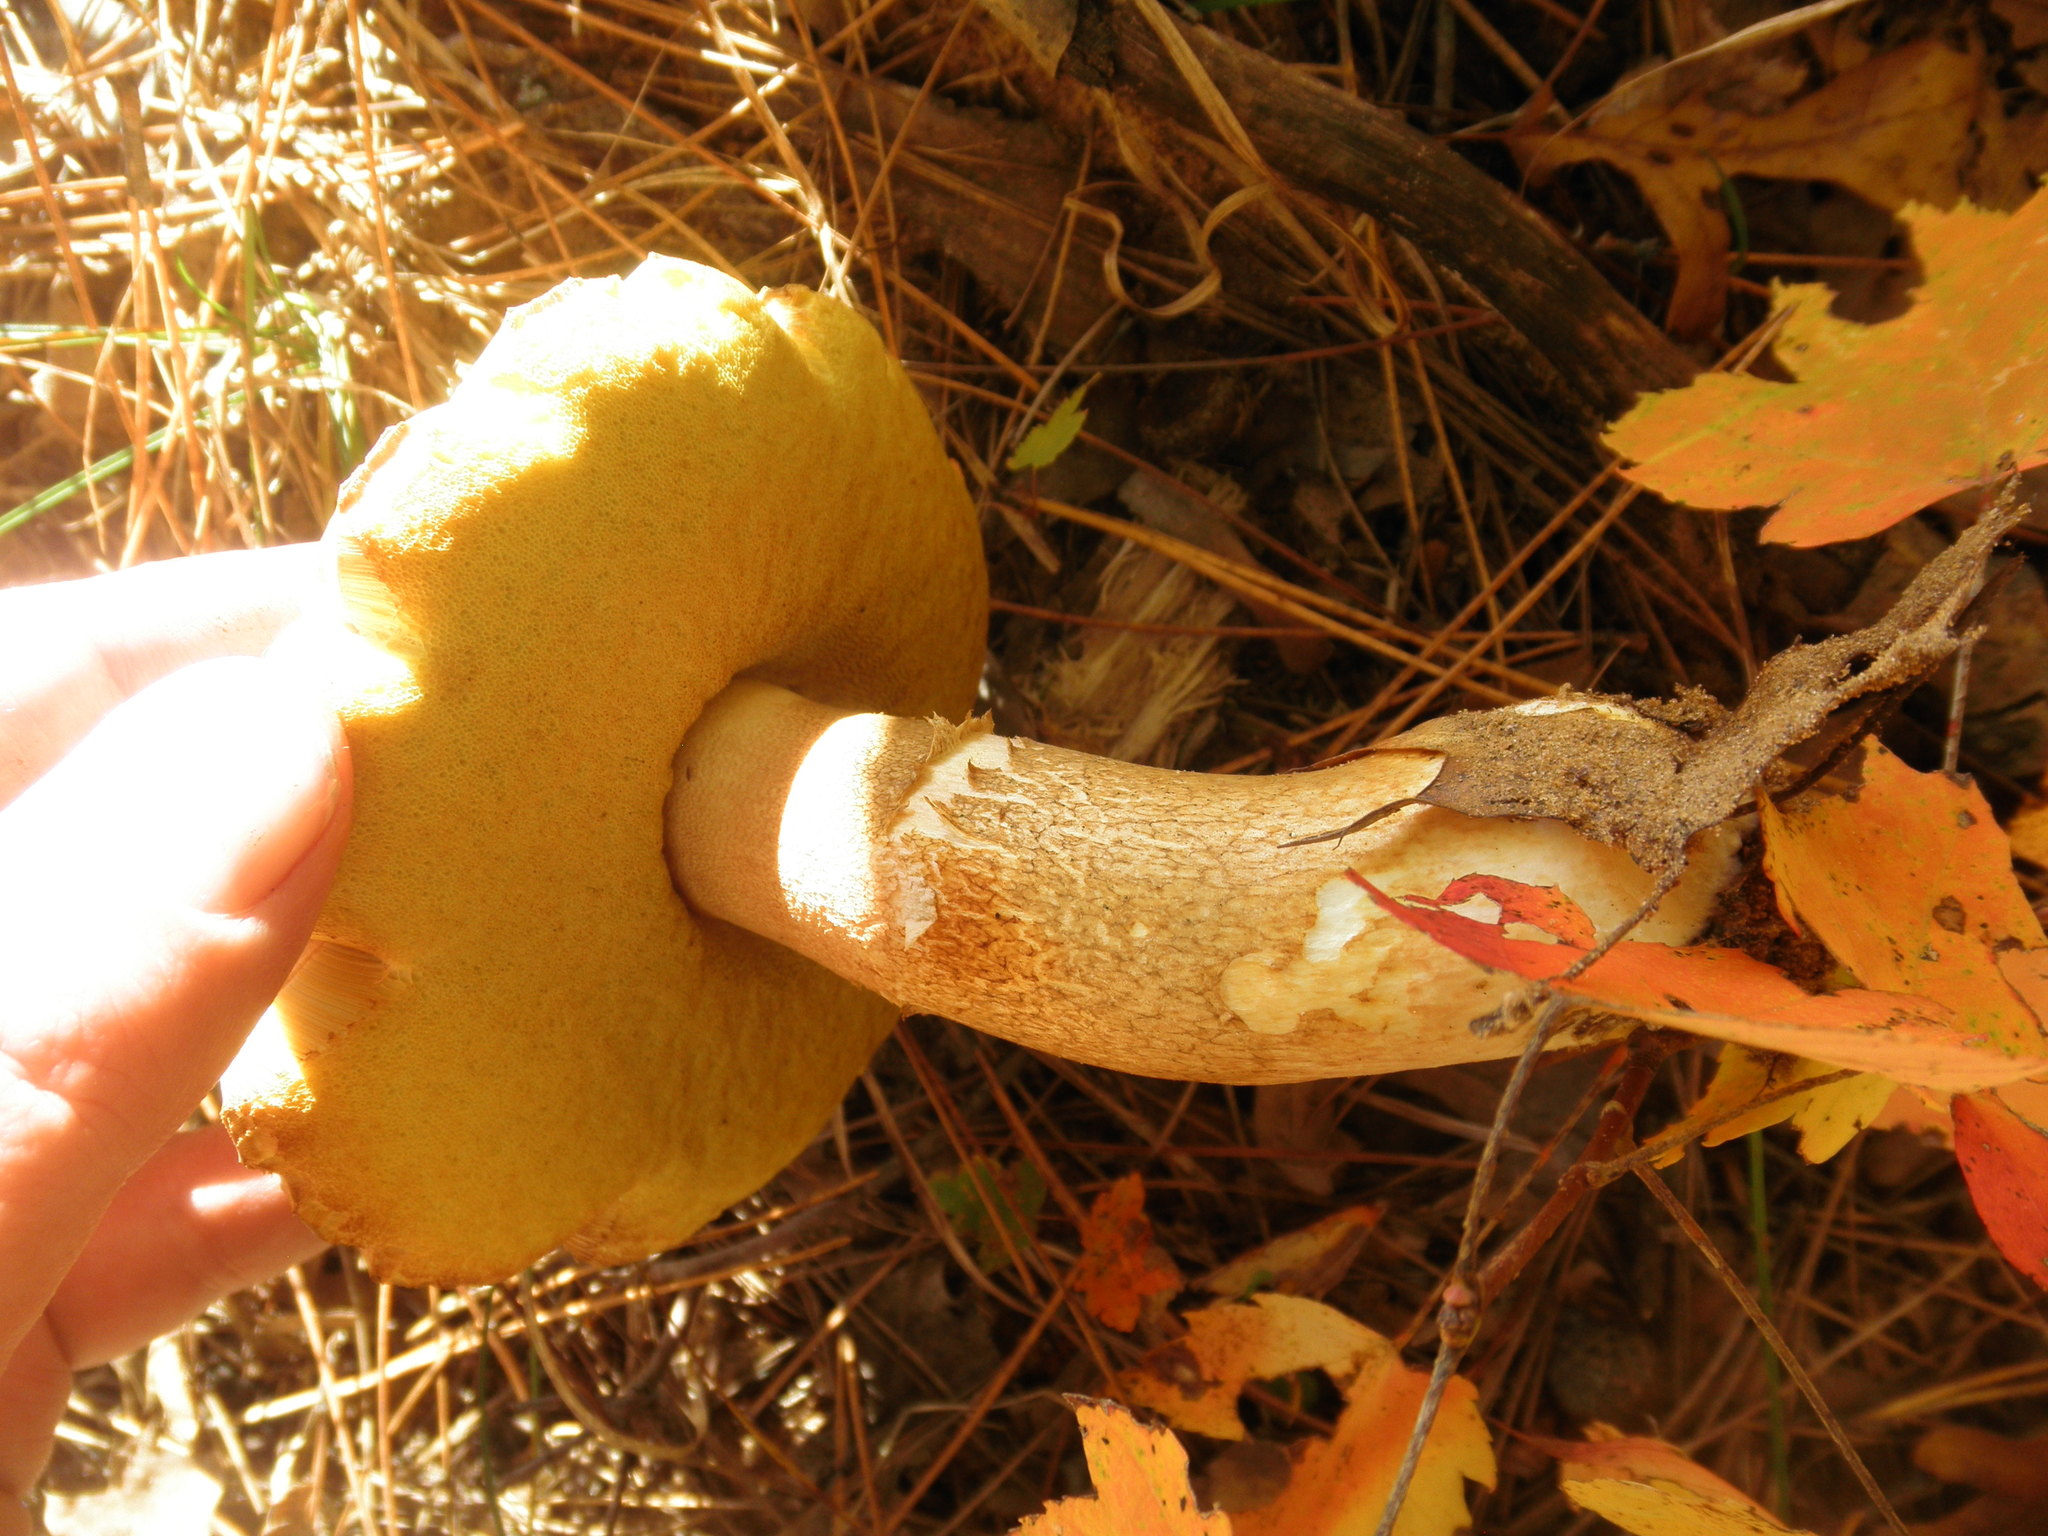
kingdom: Fungi
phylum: Basidiomycota
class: Agaricomycetes
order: Boletales
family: Boletaceae
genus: Xerocomus
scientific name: Xerocomus subtomentosus
